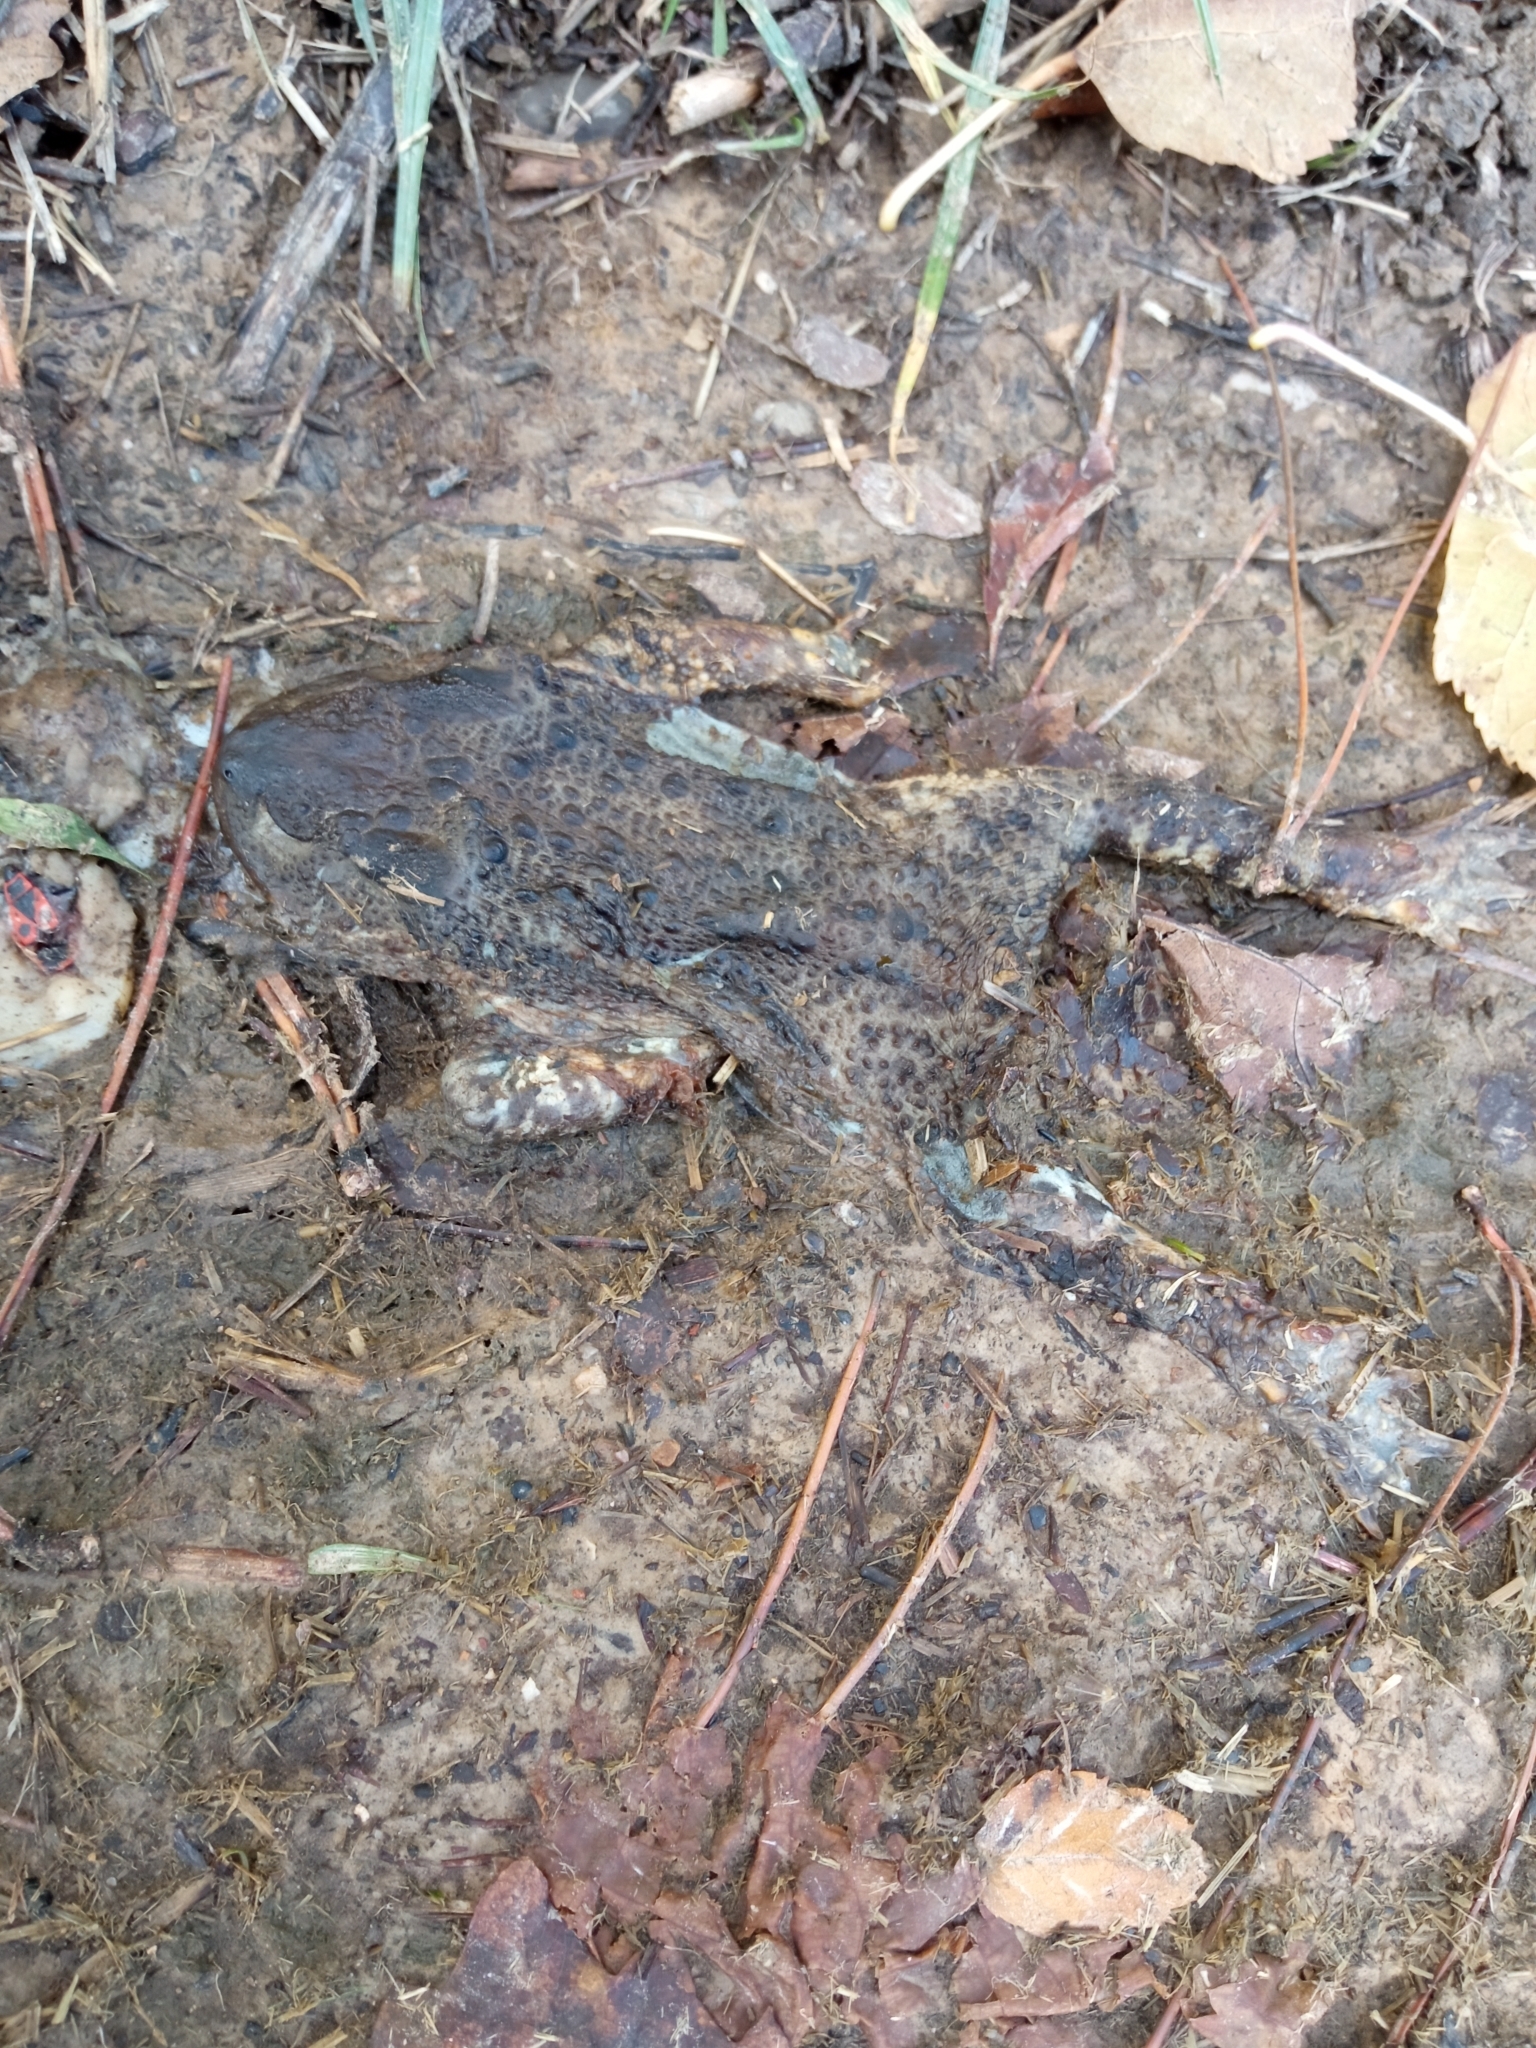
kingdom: Animalia
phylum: Chordata
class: Amphibia
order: Anura
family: Bufonidae
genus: Bufo
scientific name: Bufo bufo
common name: Common toad
